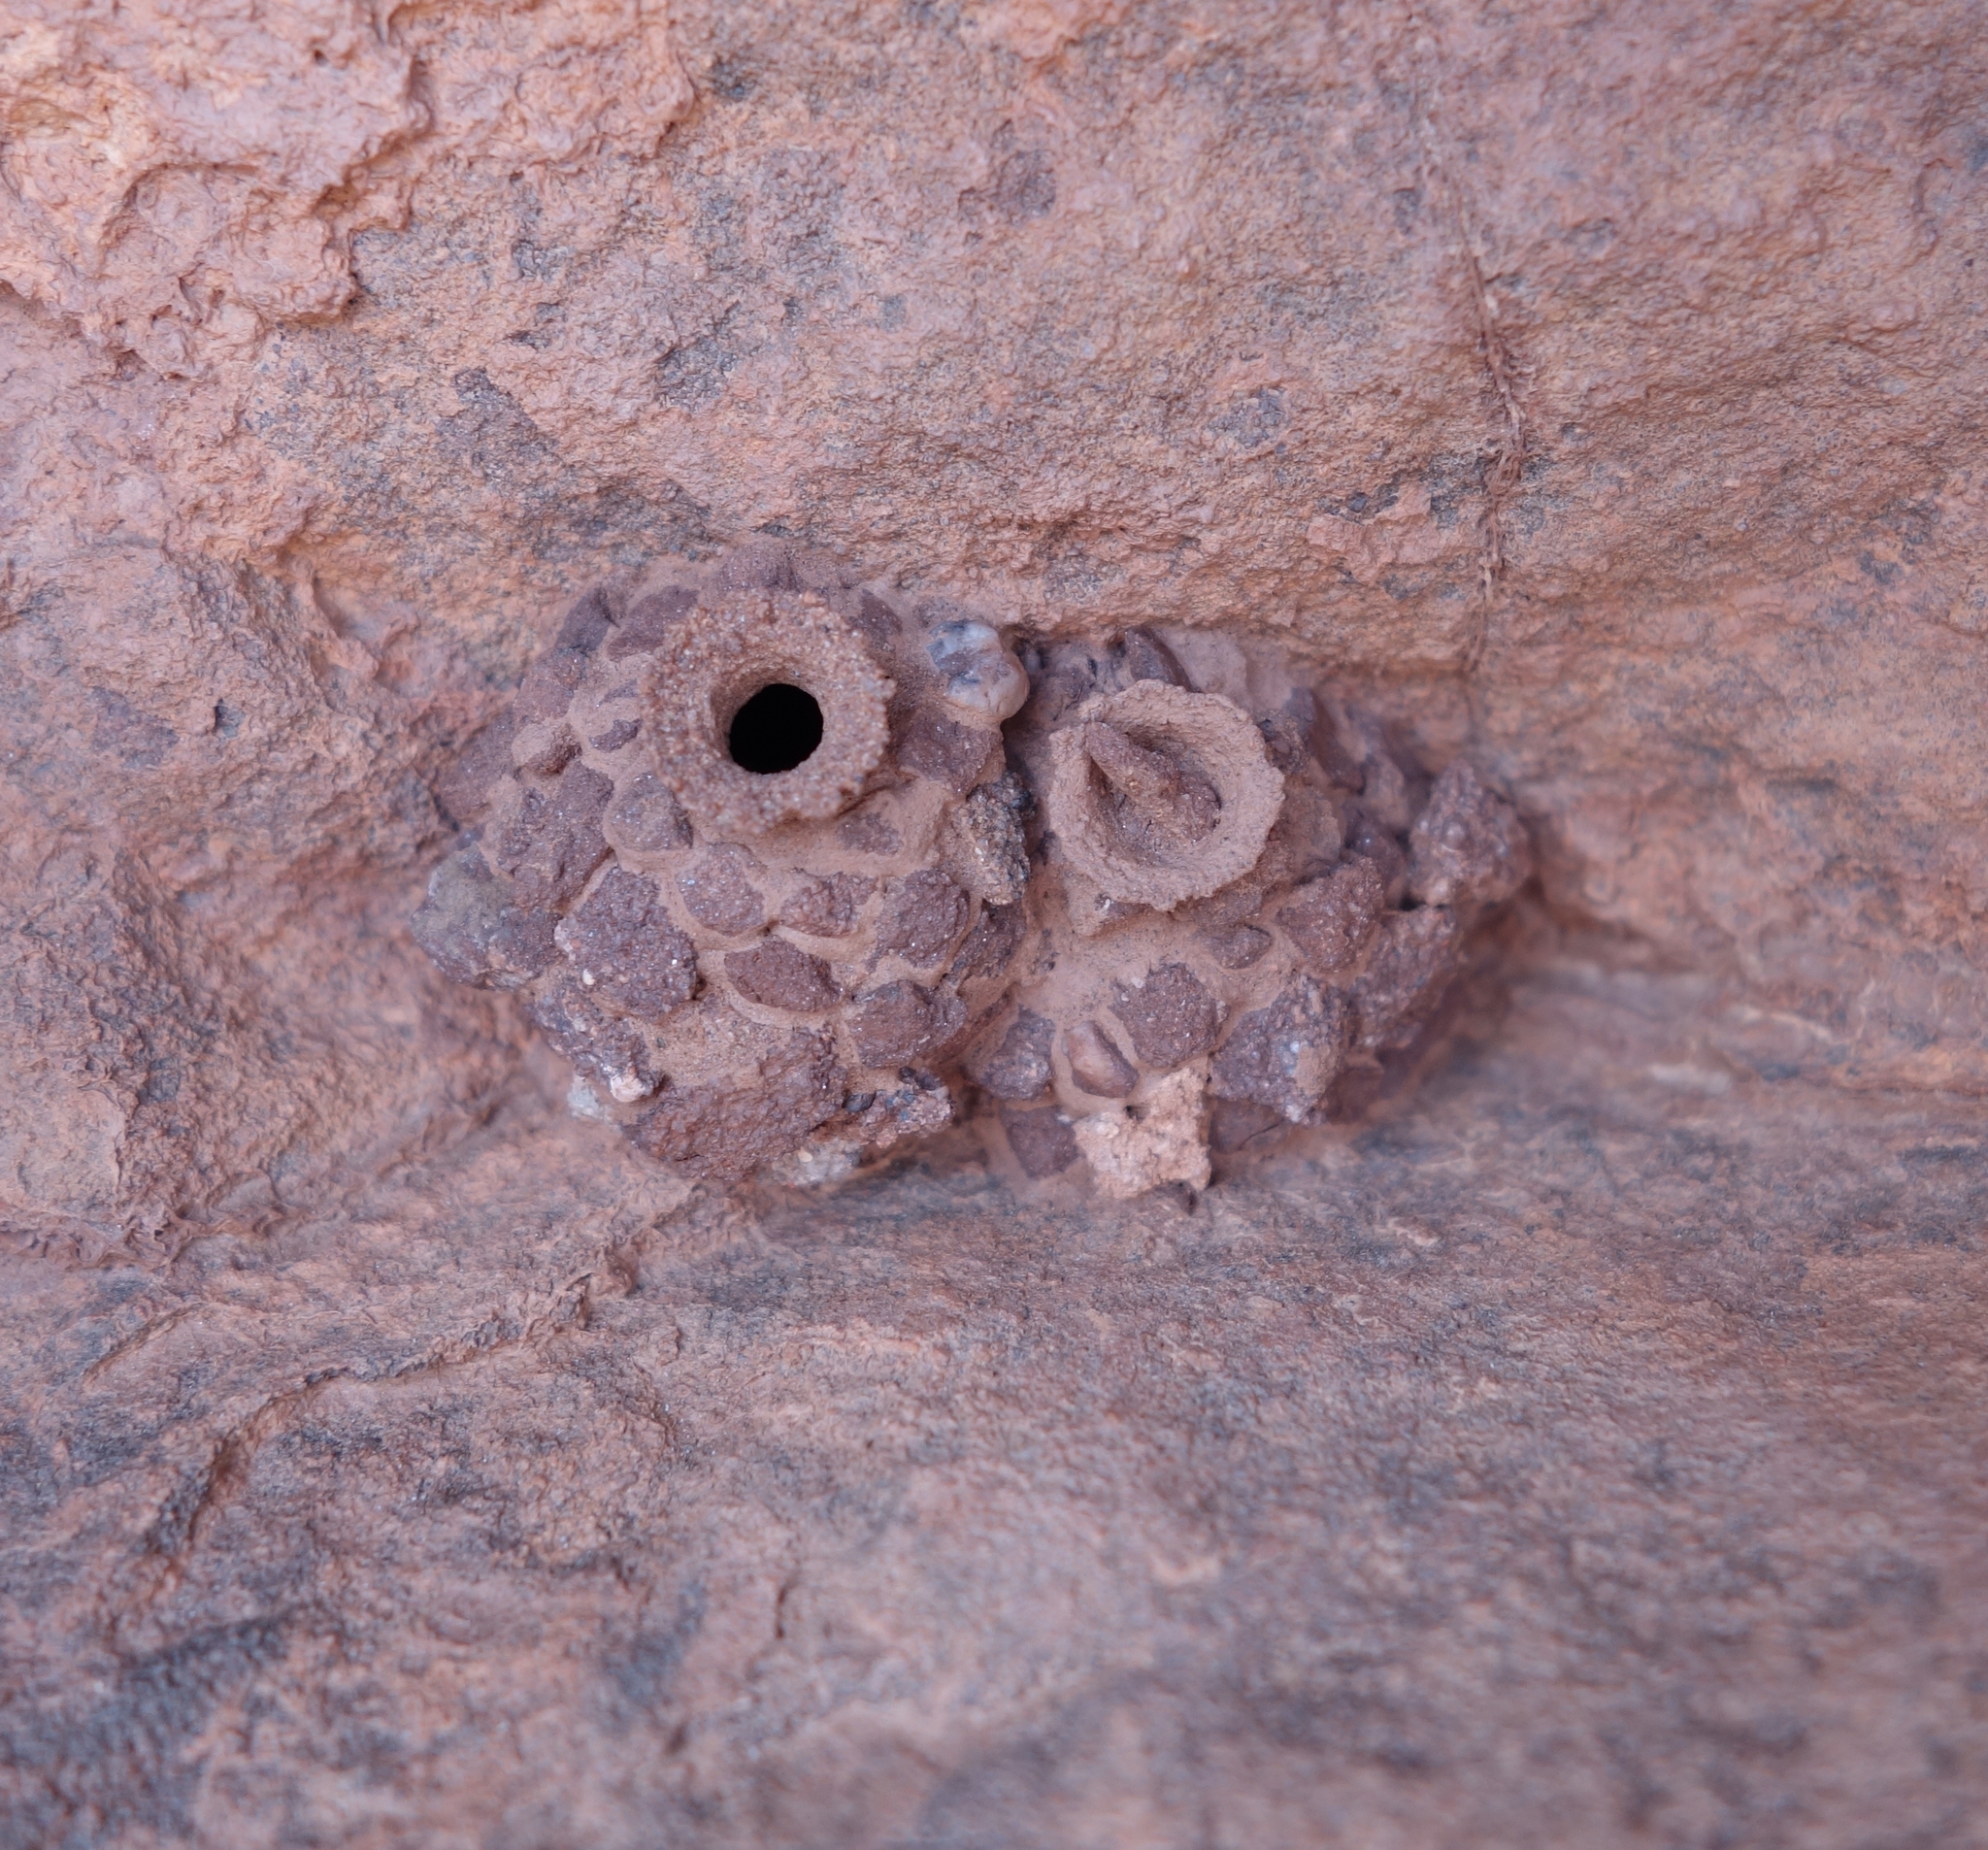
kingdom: Animalia
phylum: Arthropoda
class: Insecta
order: Hymenoptera
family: Eumenidae
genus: Katamenes
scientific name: Katamenes
